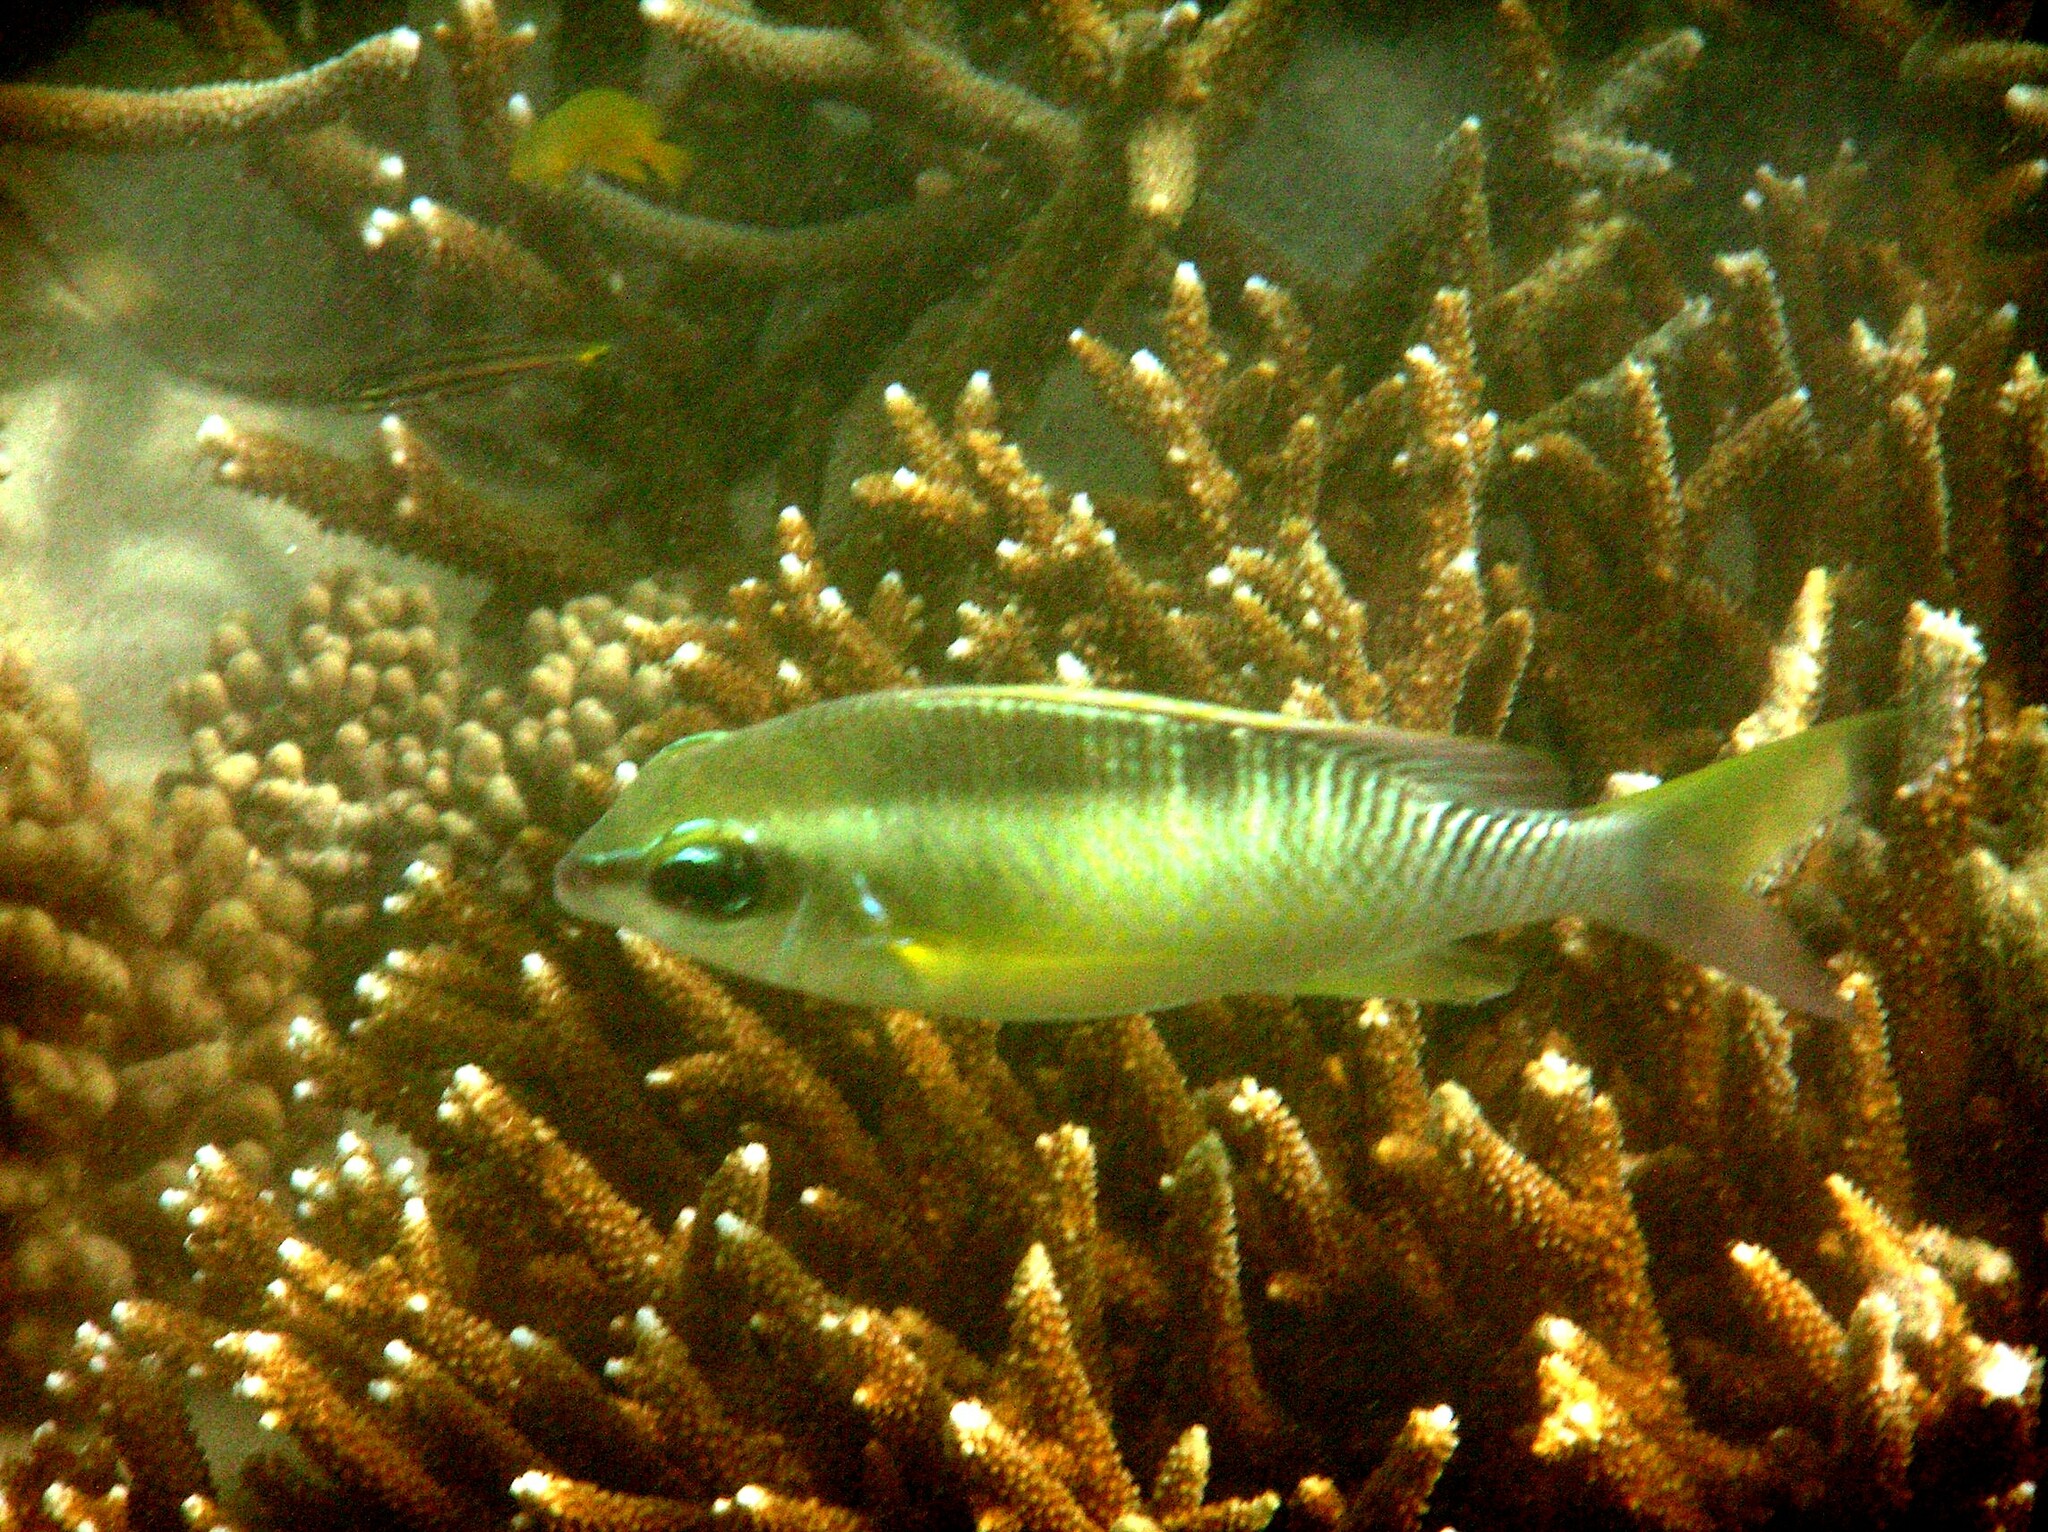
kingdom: Animalia
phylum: Chordata
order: Perciformes
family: Nemipteridae
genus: Scolopsis
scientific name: Scolopsis margaritifera
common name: Pearly monocle bream
